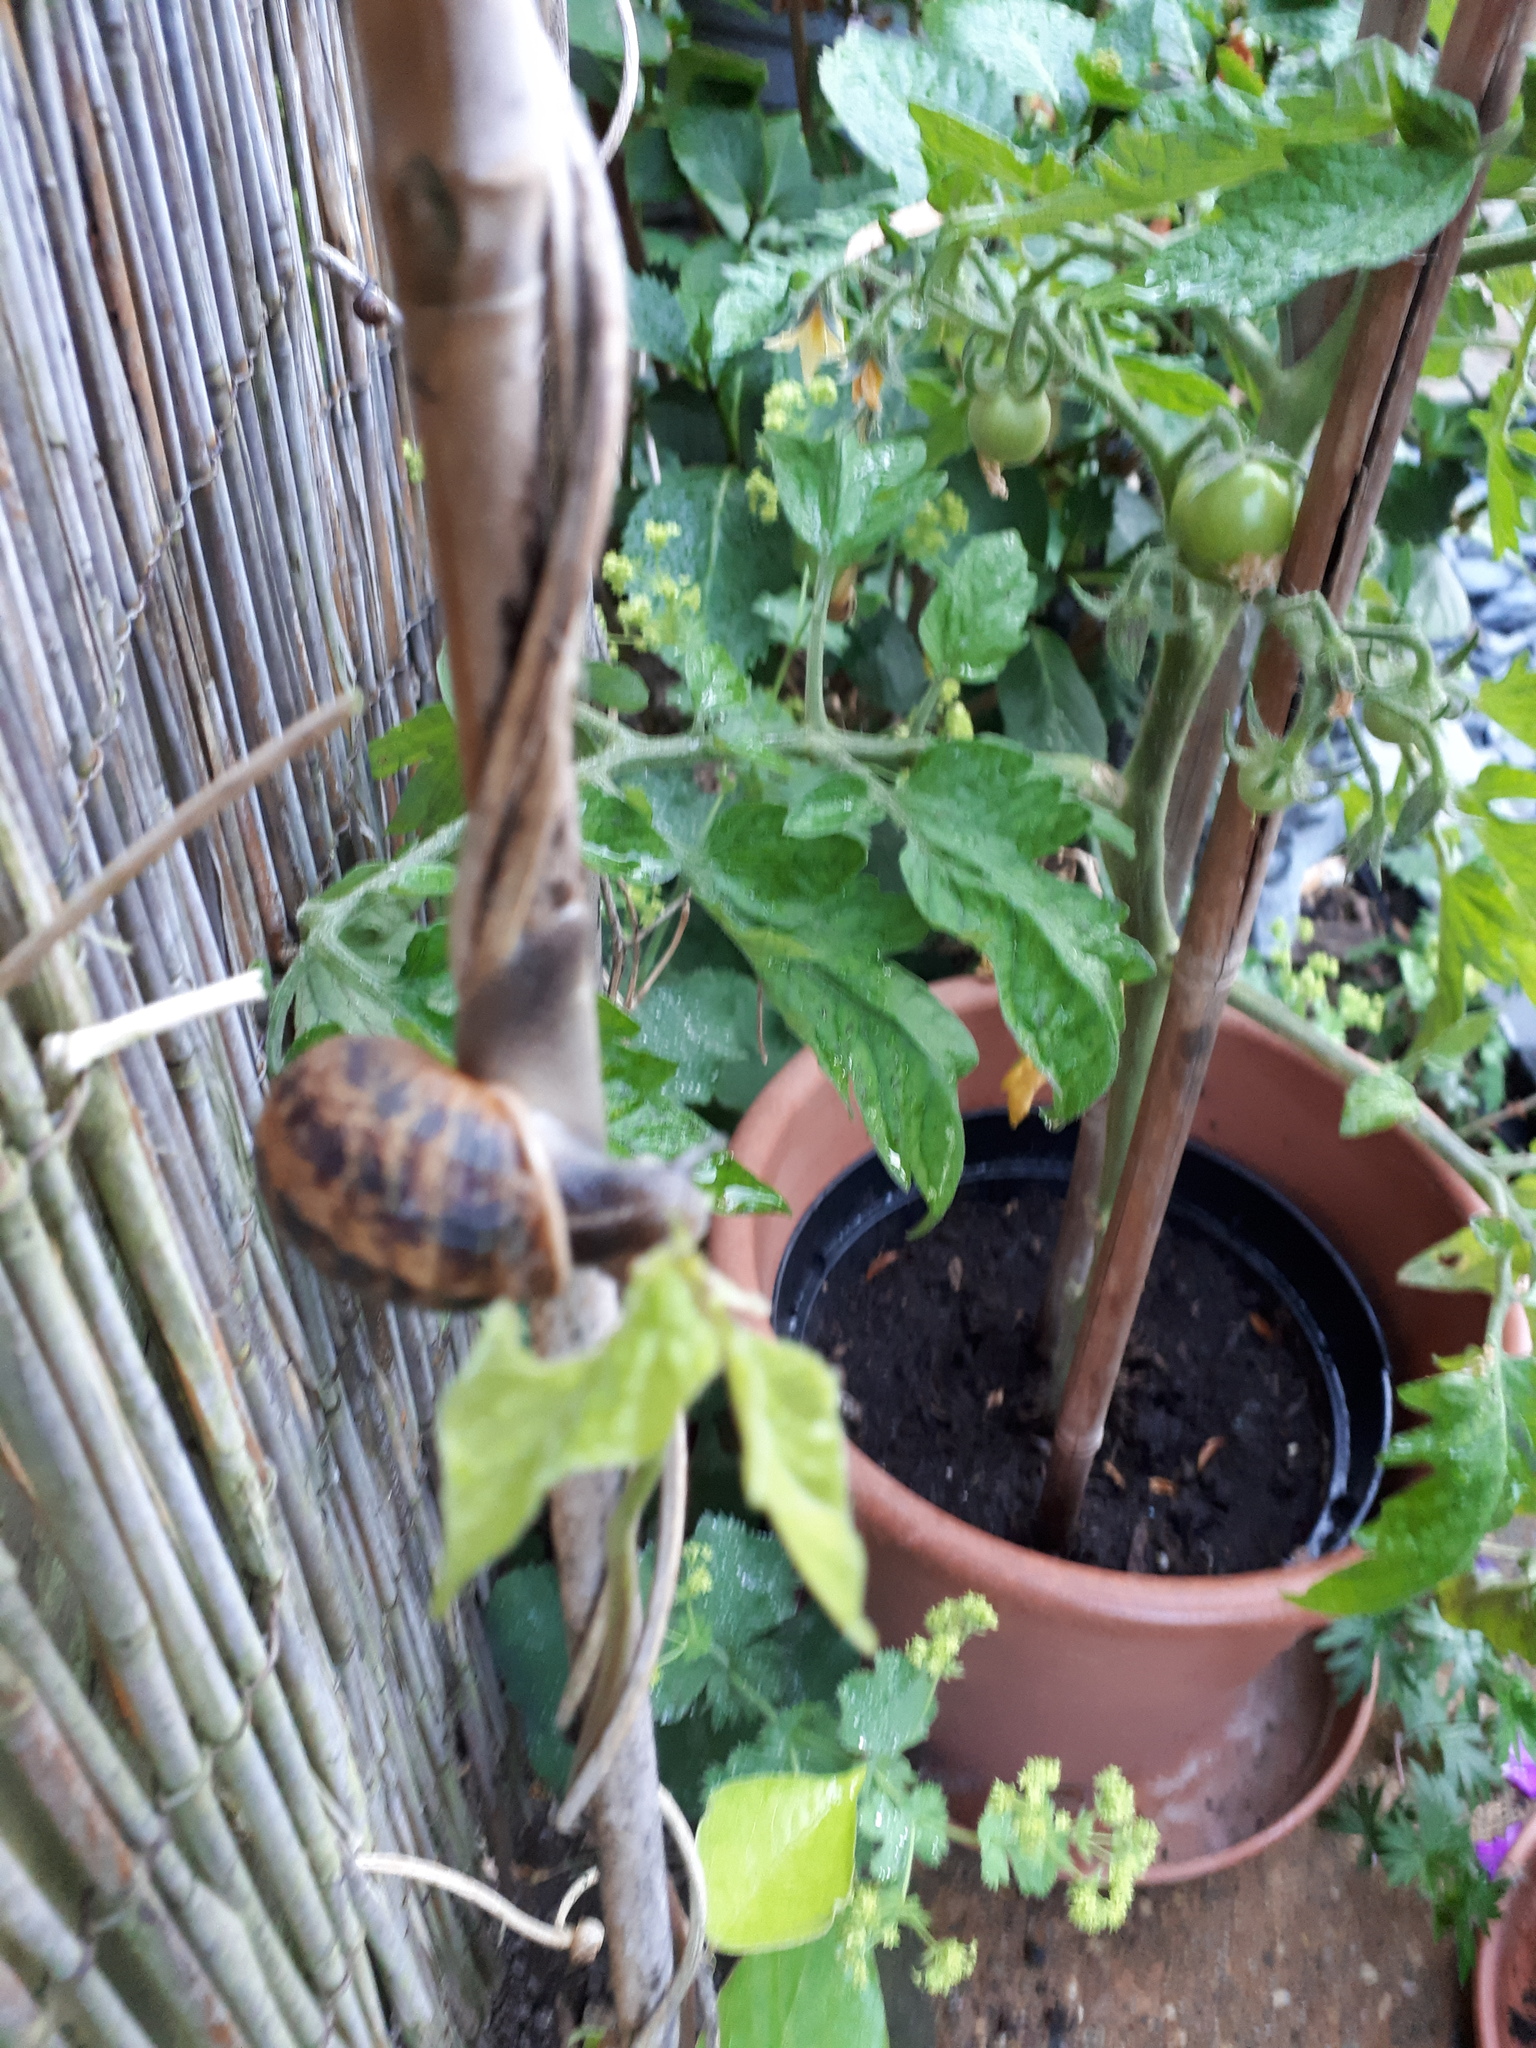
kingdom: Animalia
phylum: Mollusca
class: Gastropoda
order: Stylommatophora
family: Helicidae
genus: Cornu
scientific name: Cornu aspersum
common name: Brown garden snail
